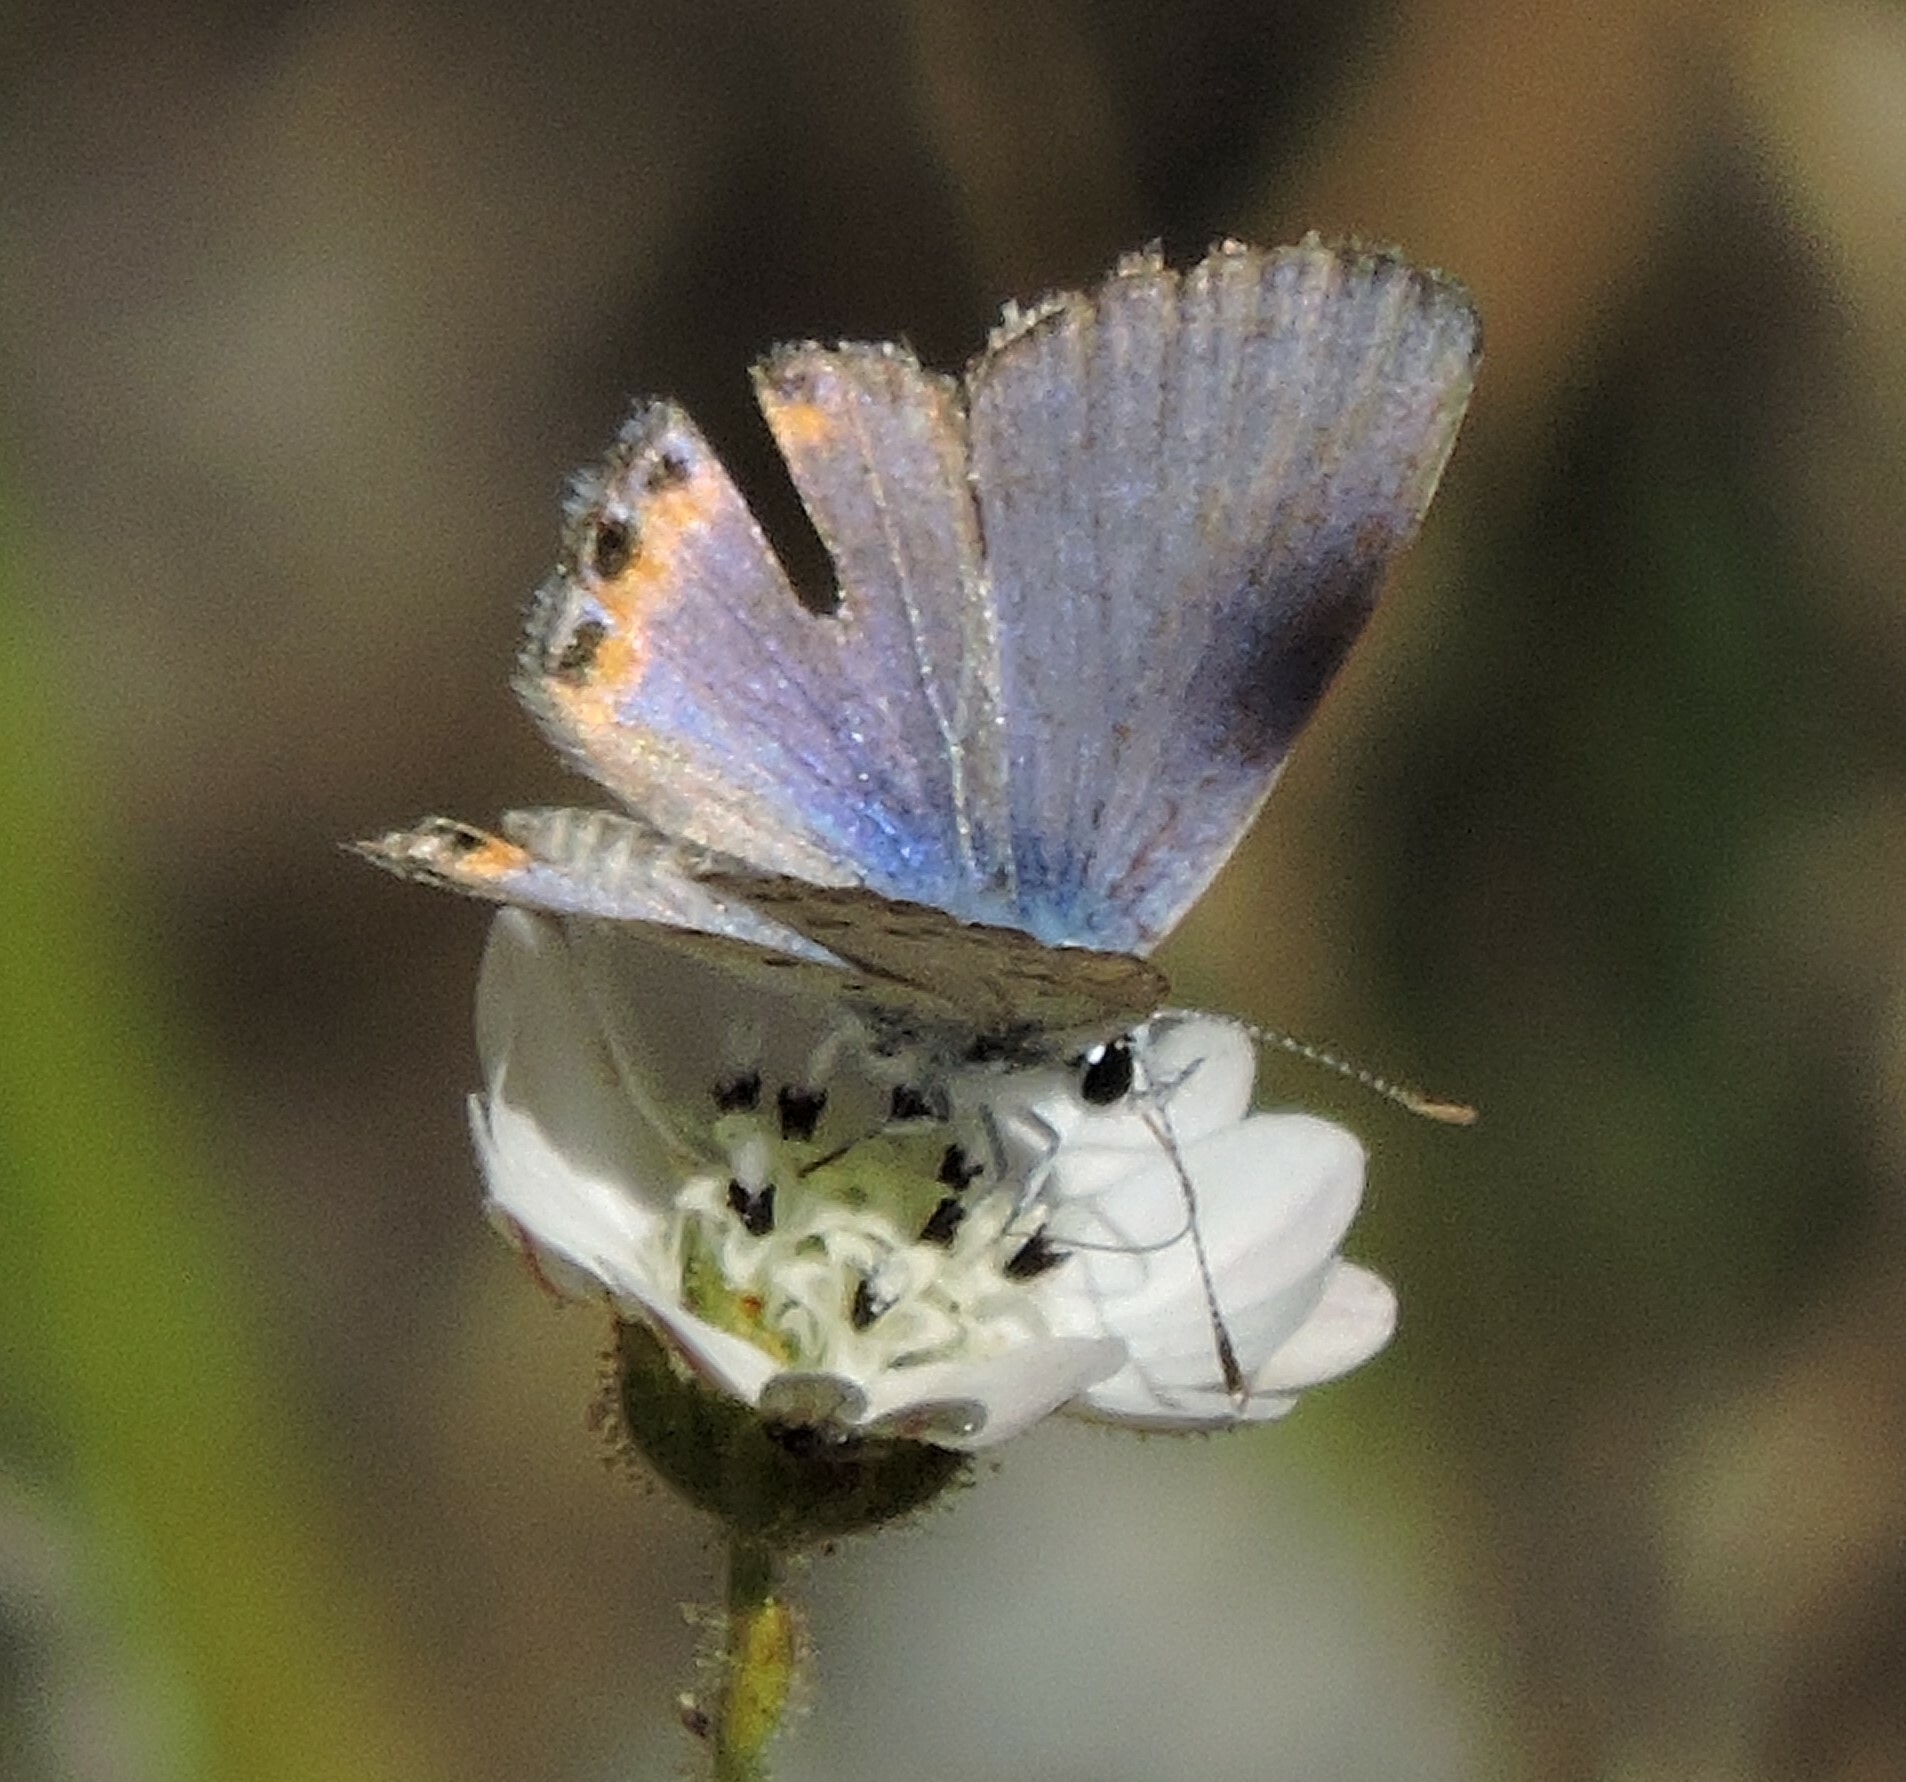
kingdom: Animalia
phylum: Arthropoda
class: Insecta
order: Lepidoptera
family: Lycaenidae
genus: Icaricia
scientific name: Icaricia acmon
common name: Acmon blue
